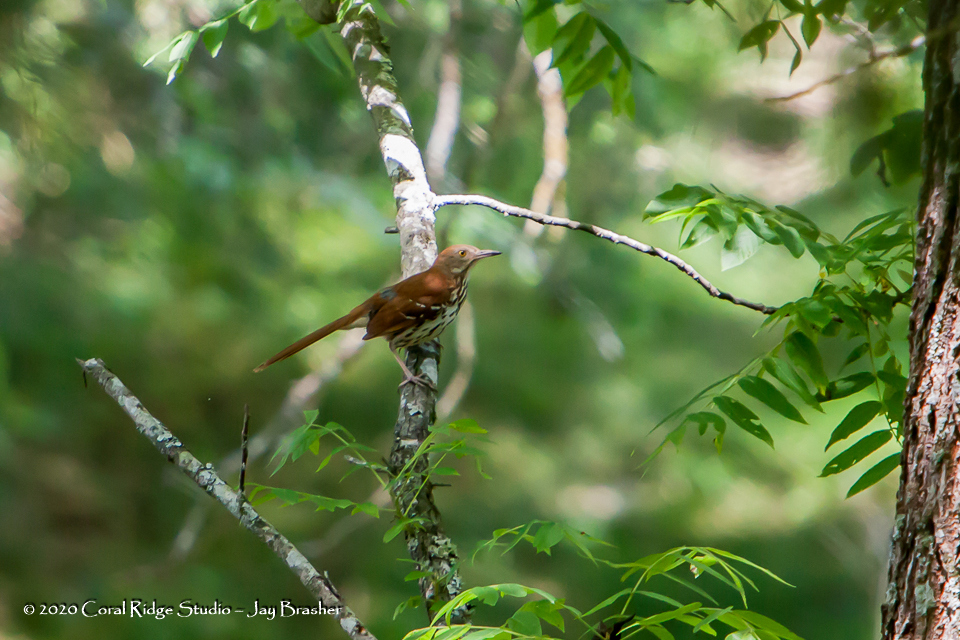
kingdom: Animalia
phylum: Chordata
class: Aves
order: Passeriformes
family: Mimidae
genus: Toxostoma
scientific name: Toxostoma rufum
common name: Brown thrasher
